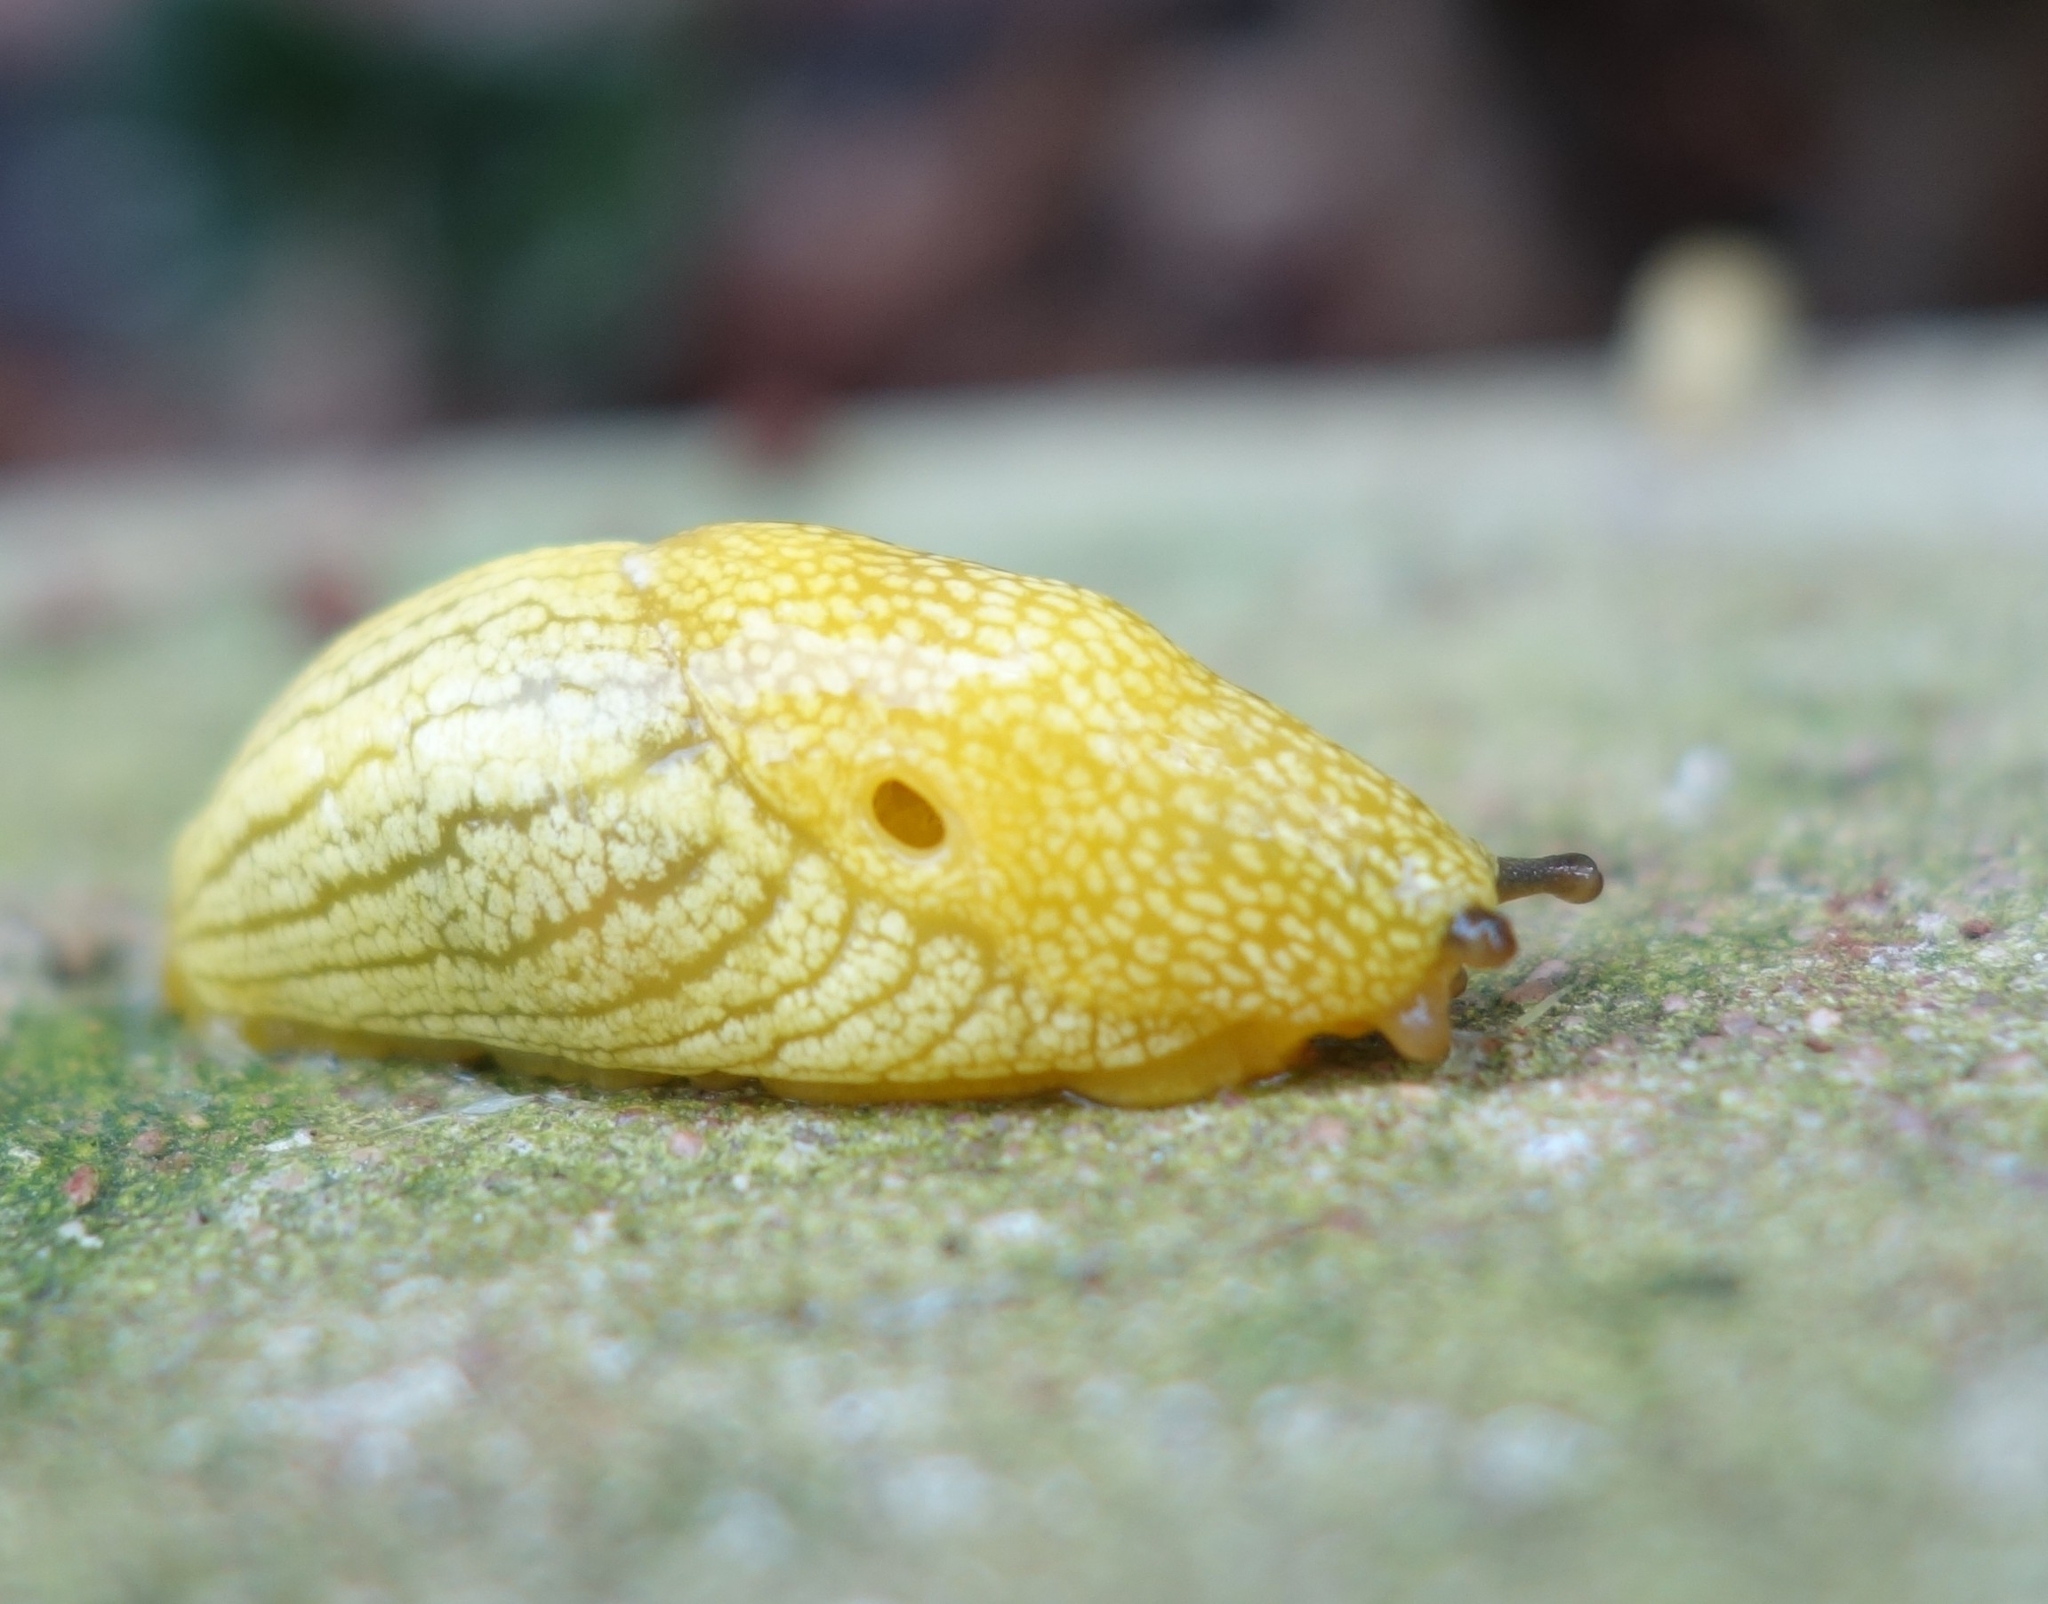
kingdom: Animalia
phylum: Mollusca
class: Gastropoda
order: Stylommatophora
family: Urocyclidae
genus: Elisolimax
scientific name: Elisolimax flavescens
